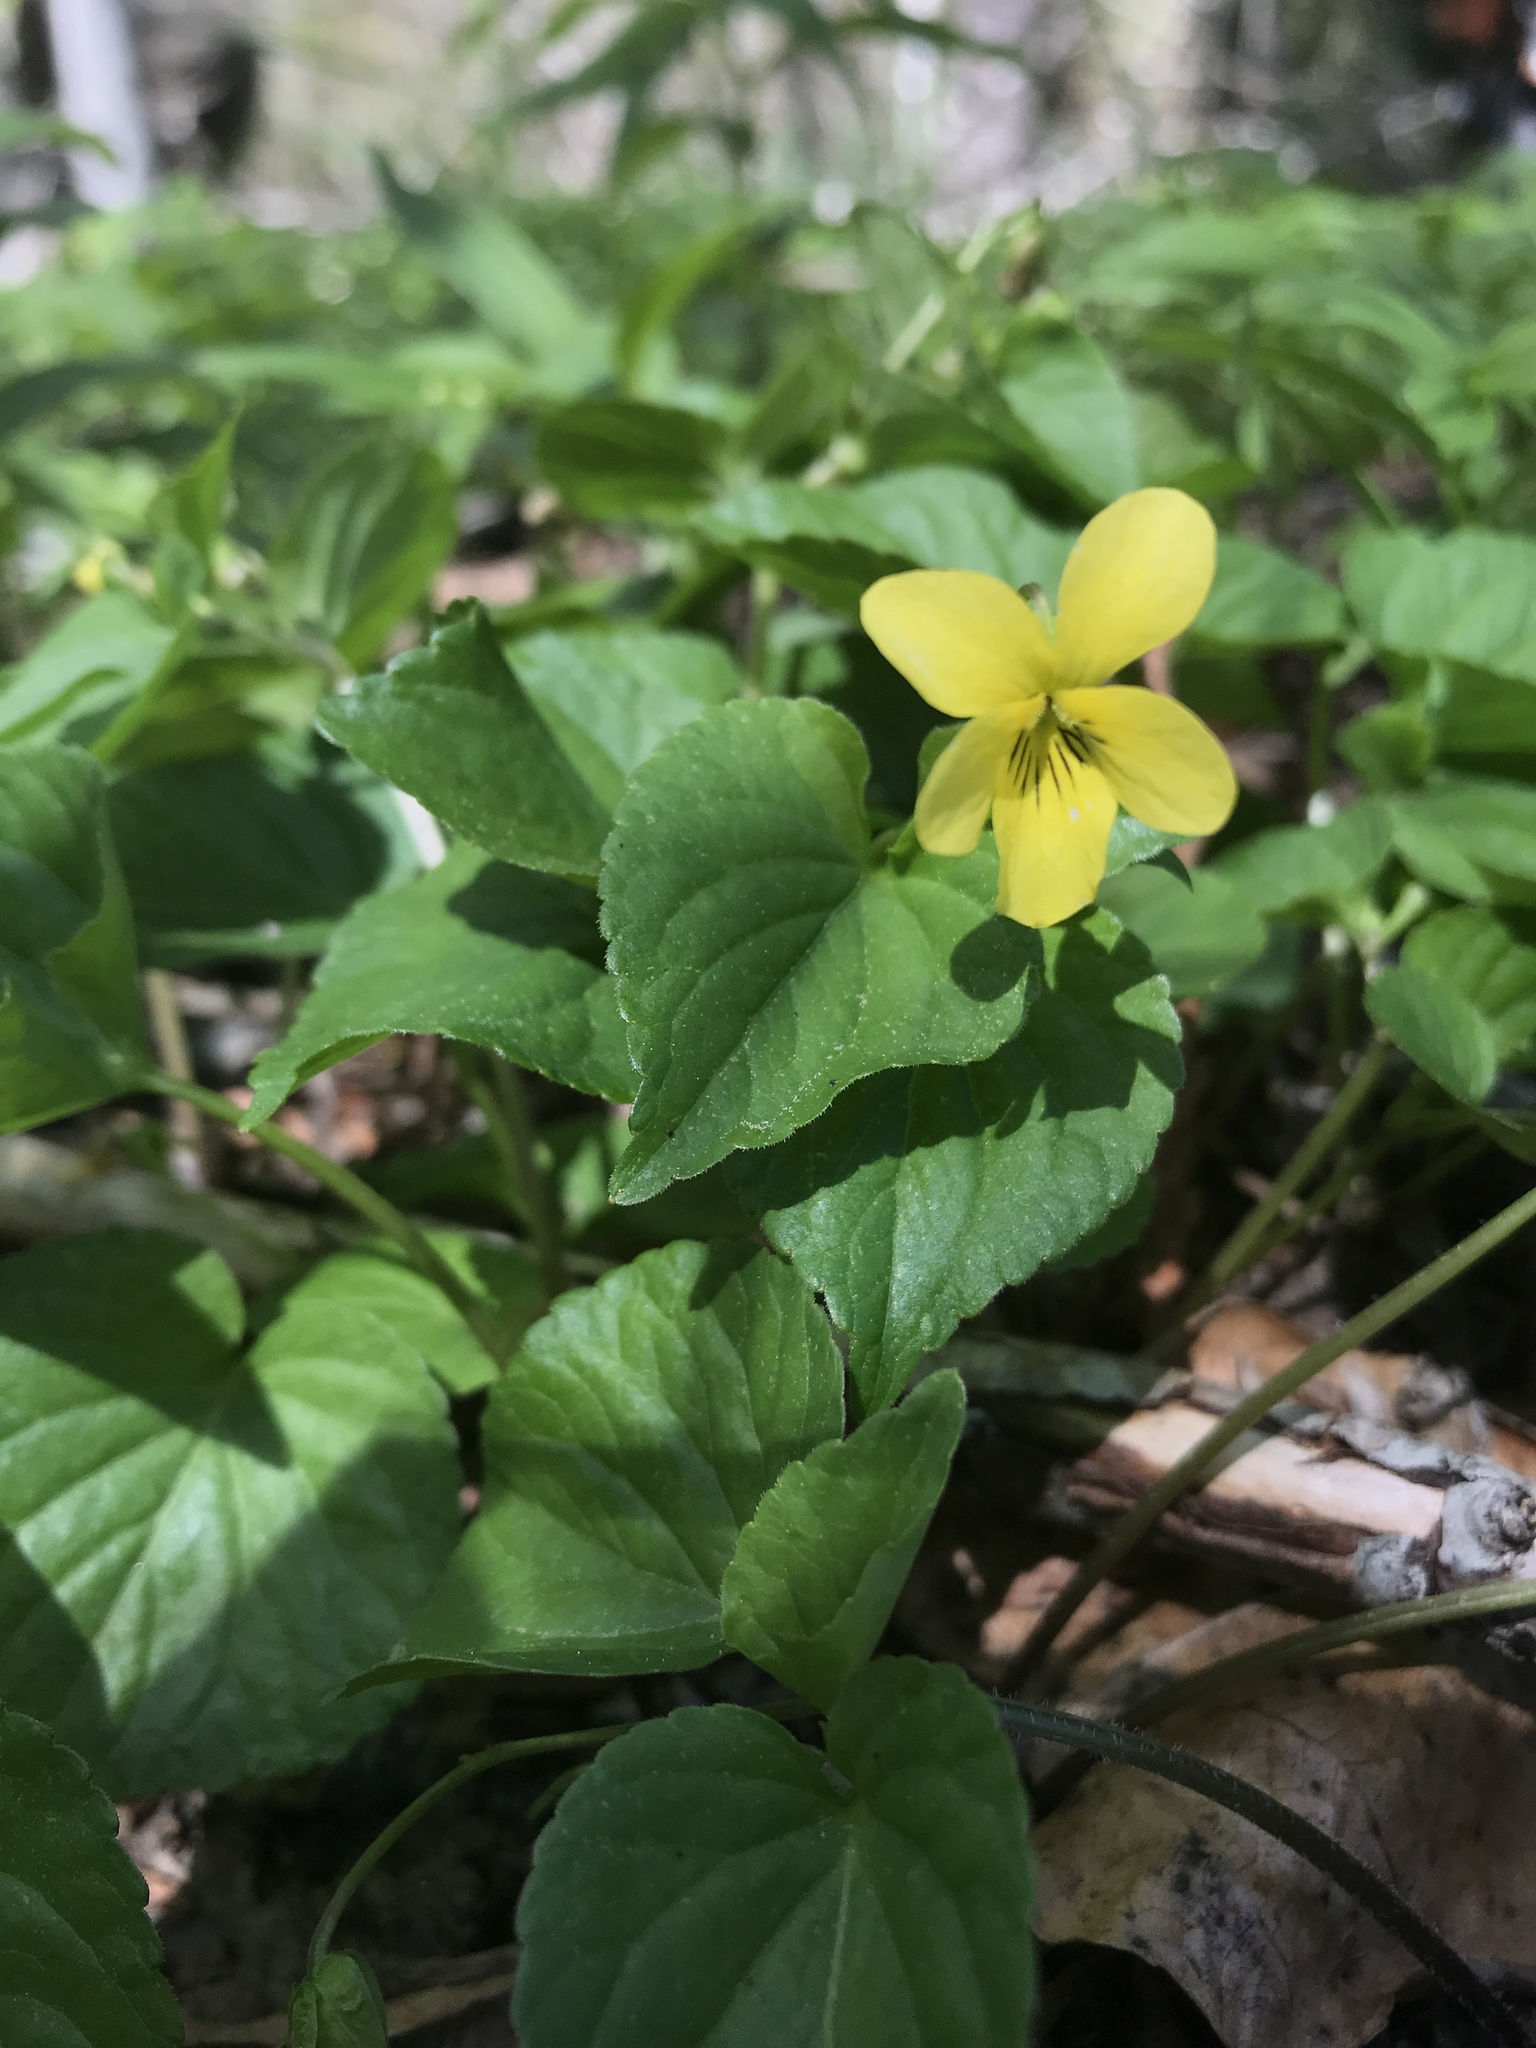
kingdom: Plantae
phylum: Tracheophyta
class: Magnoliopsida
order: Malpighiales
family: Violaceae
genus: Viola
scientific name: Viola glabella
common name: Stream violet
